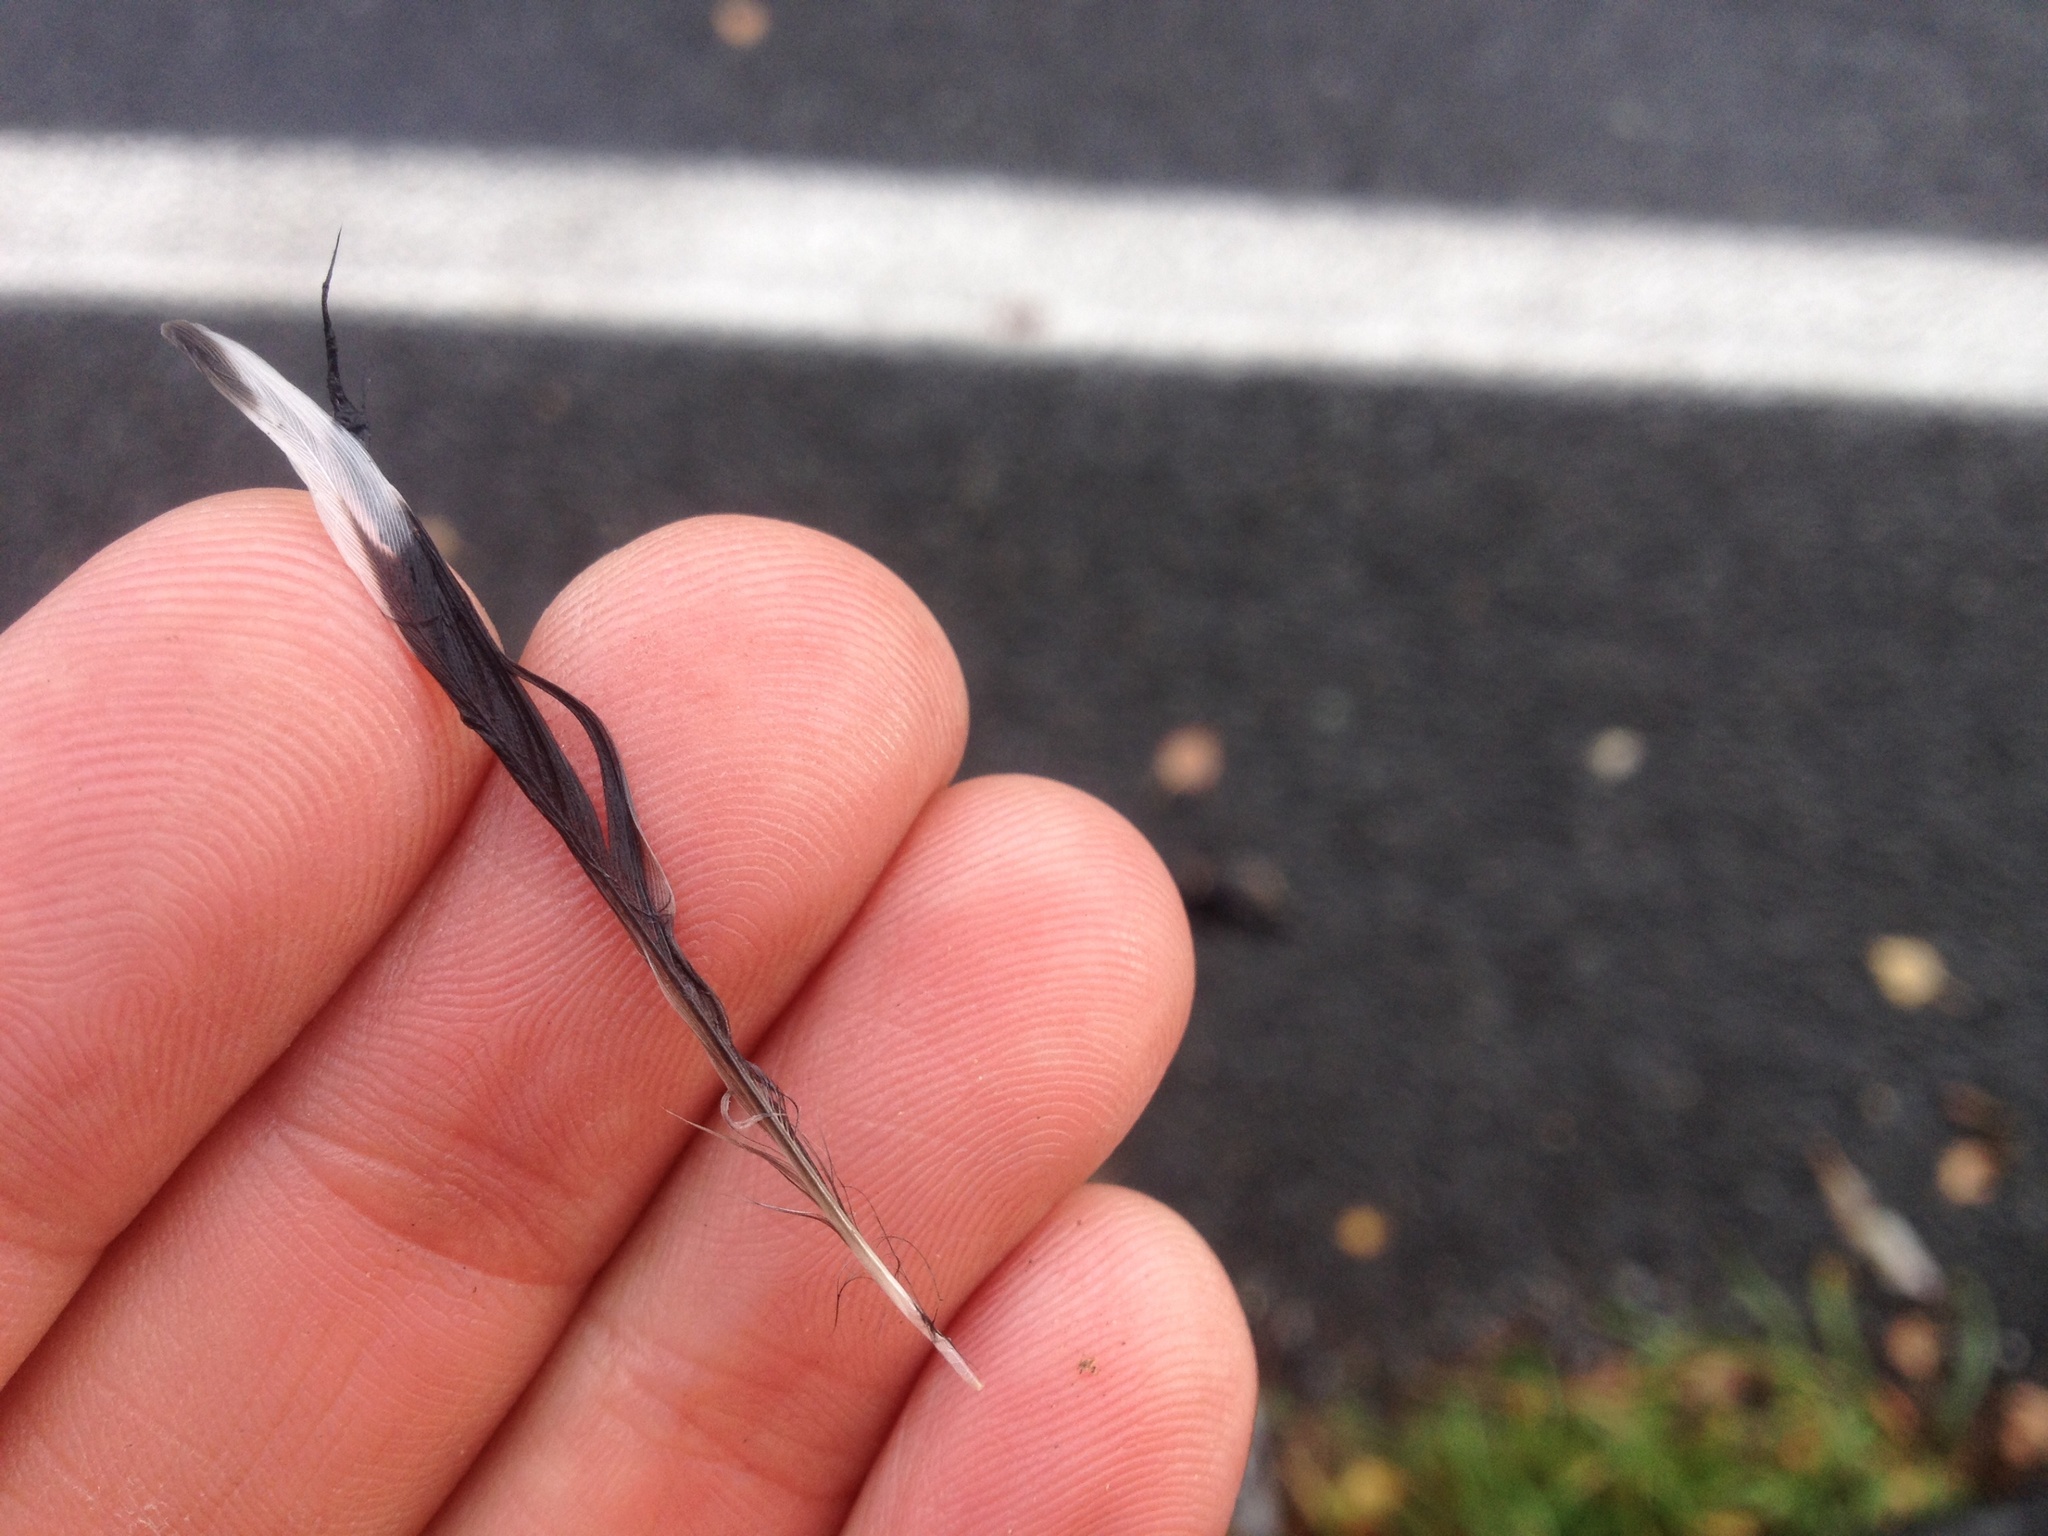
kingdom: Animalia
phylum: Chordata
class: Aves
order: Passeriformes
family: Acanthizidae
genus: Gerygone
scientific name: Gerygone igata
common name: Grey gerygone
